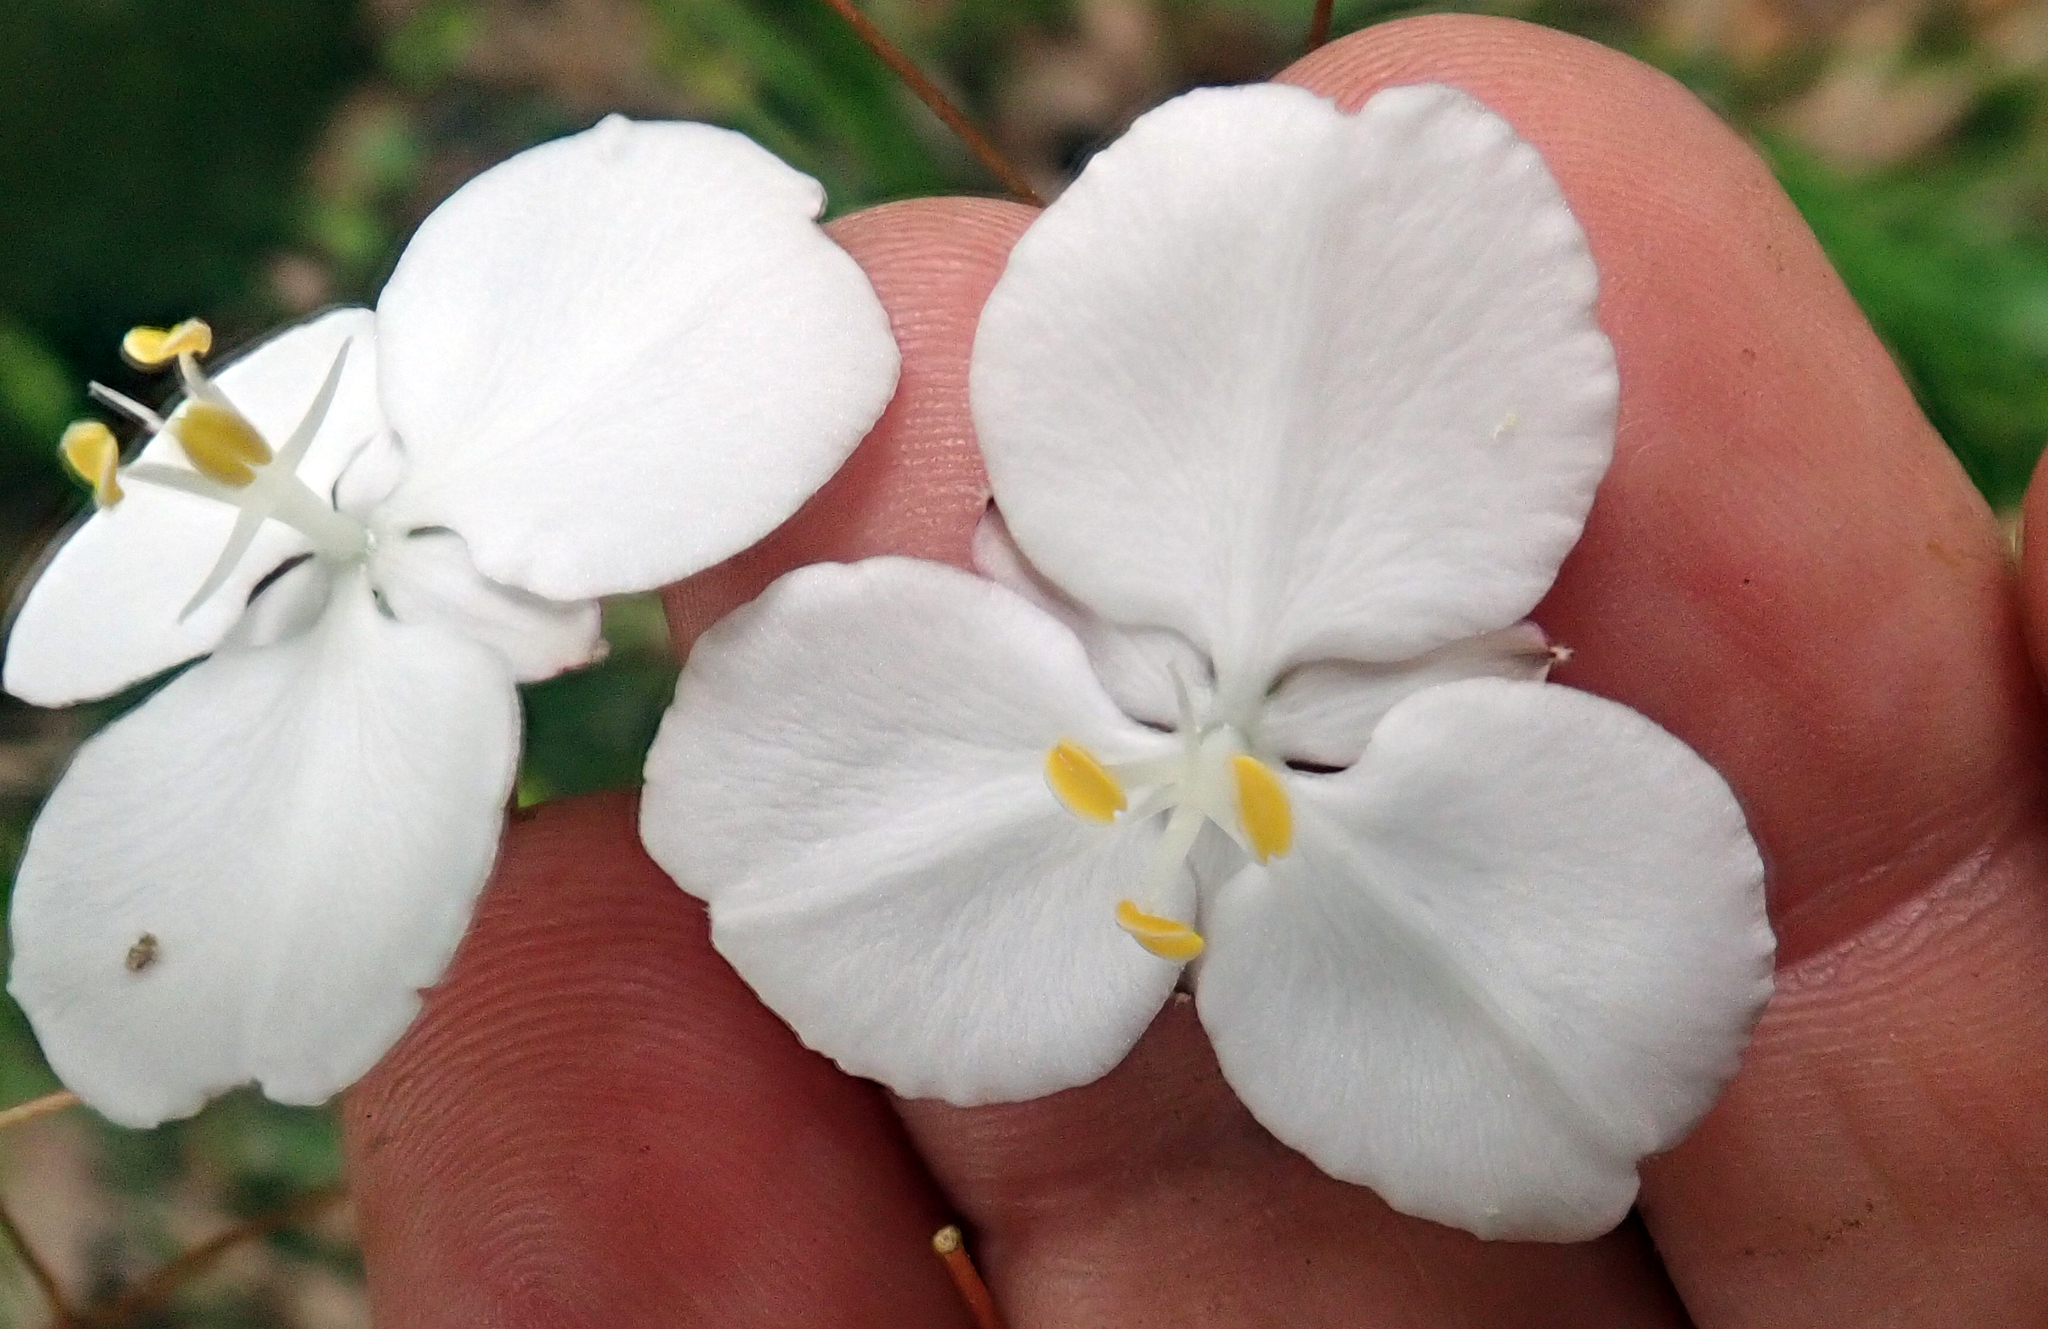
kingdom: Plantae
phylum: Tracheophyta
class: Liliopsida
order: Asparagales
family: Iridaceae
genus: Libertia
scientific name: Libertia grandiflora
